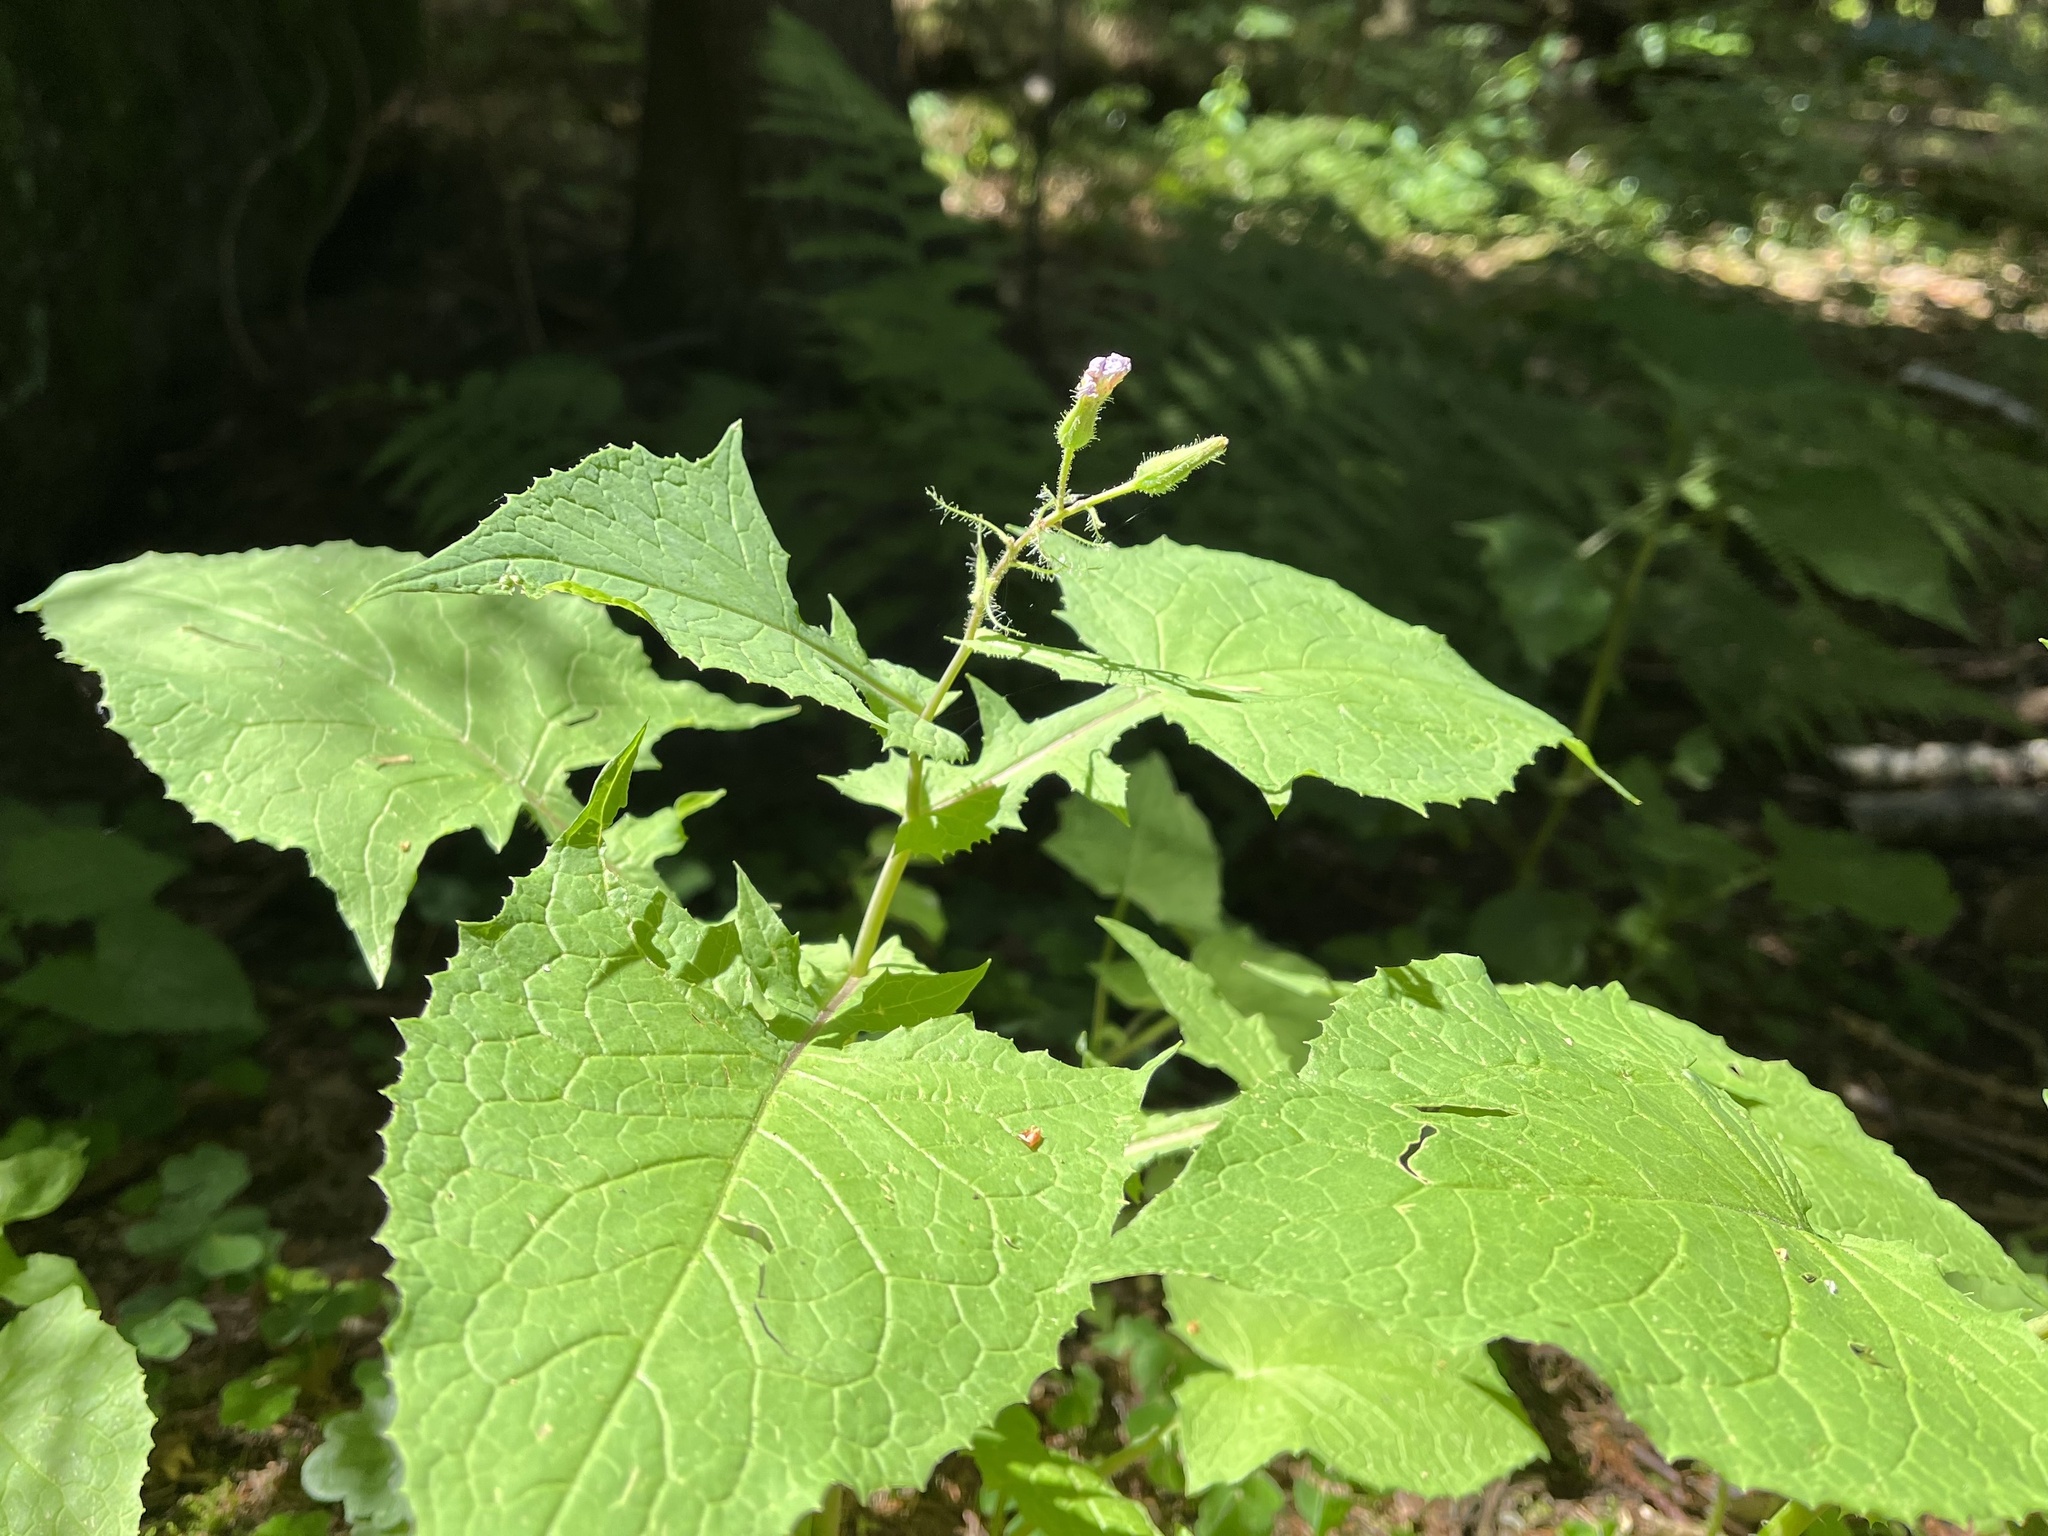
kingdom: Plantae
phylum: Tracheophyta
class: Magnoliopsida
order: Asterales
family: Asteraceae
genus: Cicerbita
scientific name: Cicerbita alpina
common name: Alpine blue-sow-thistle
